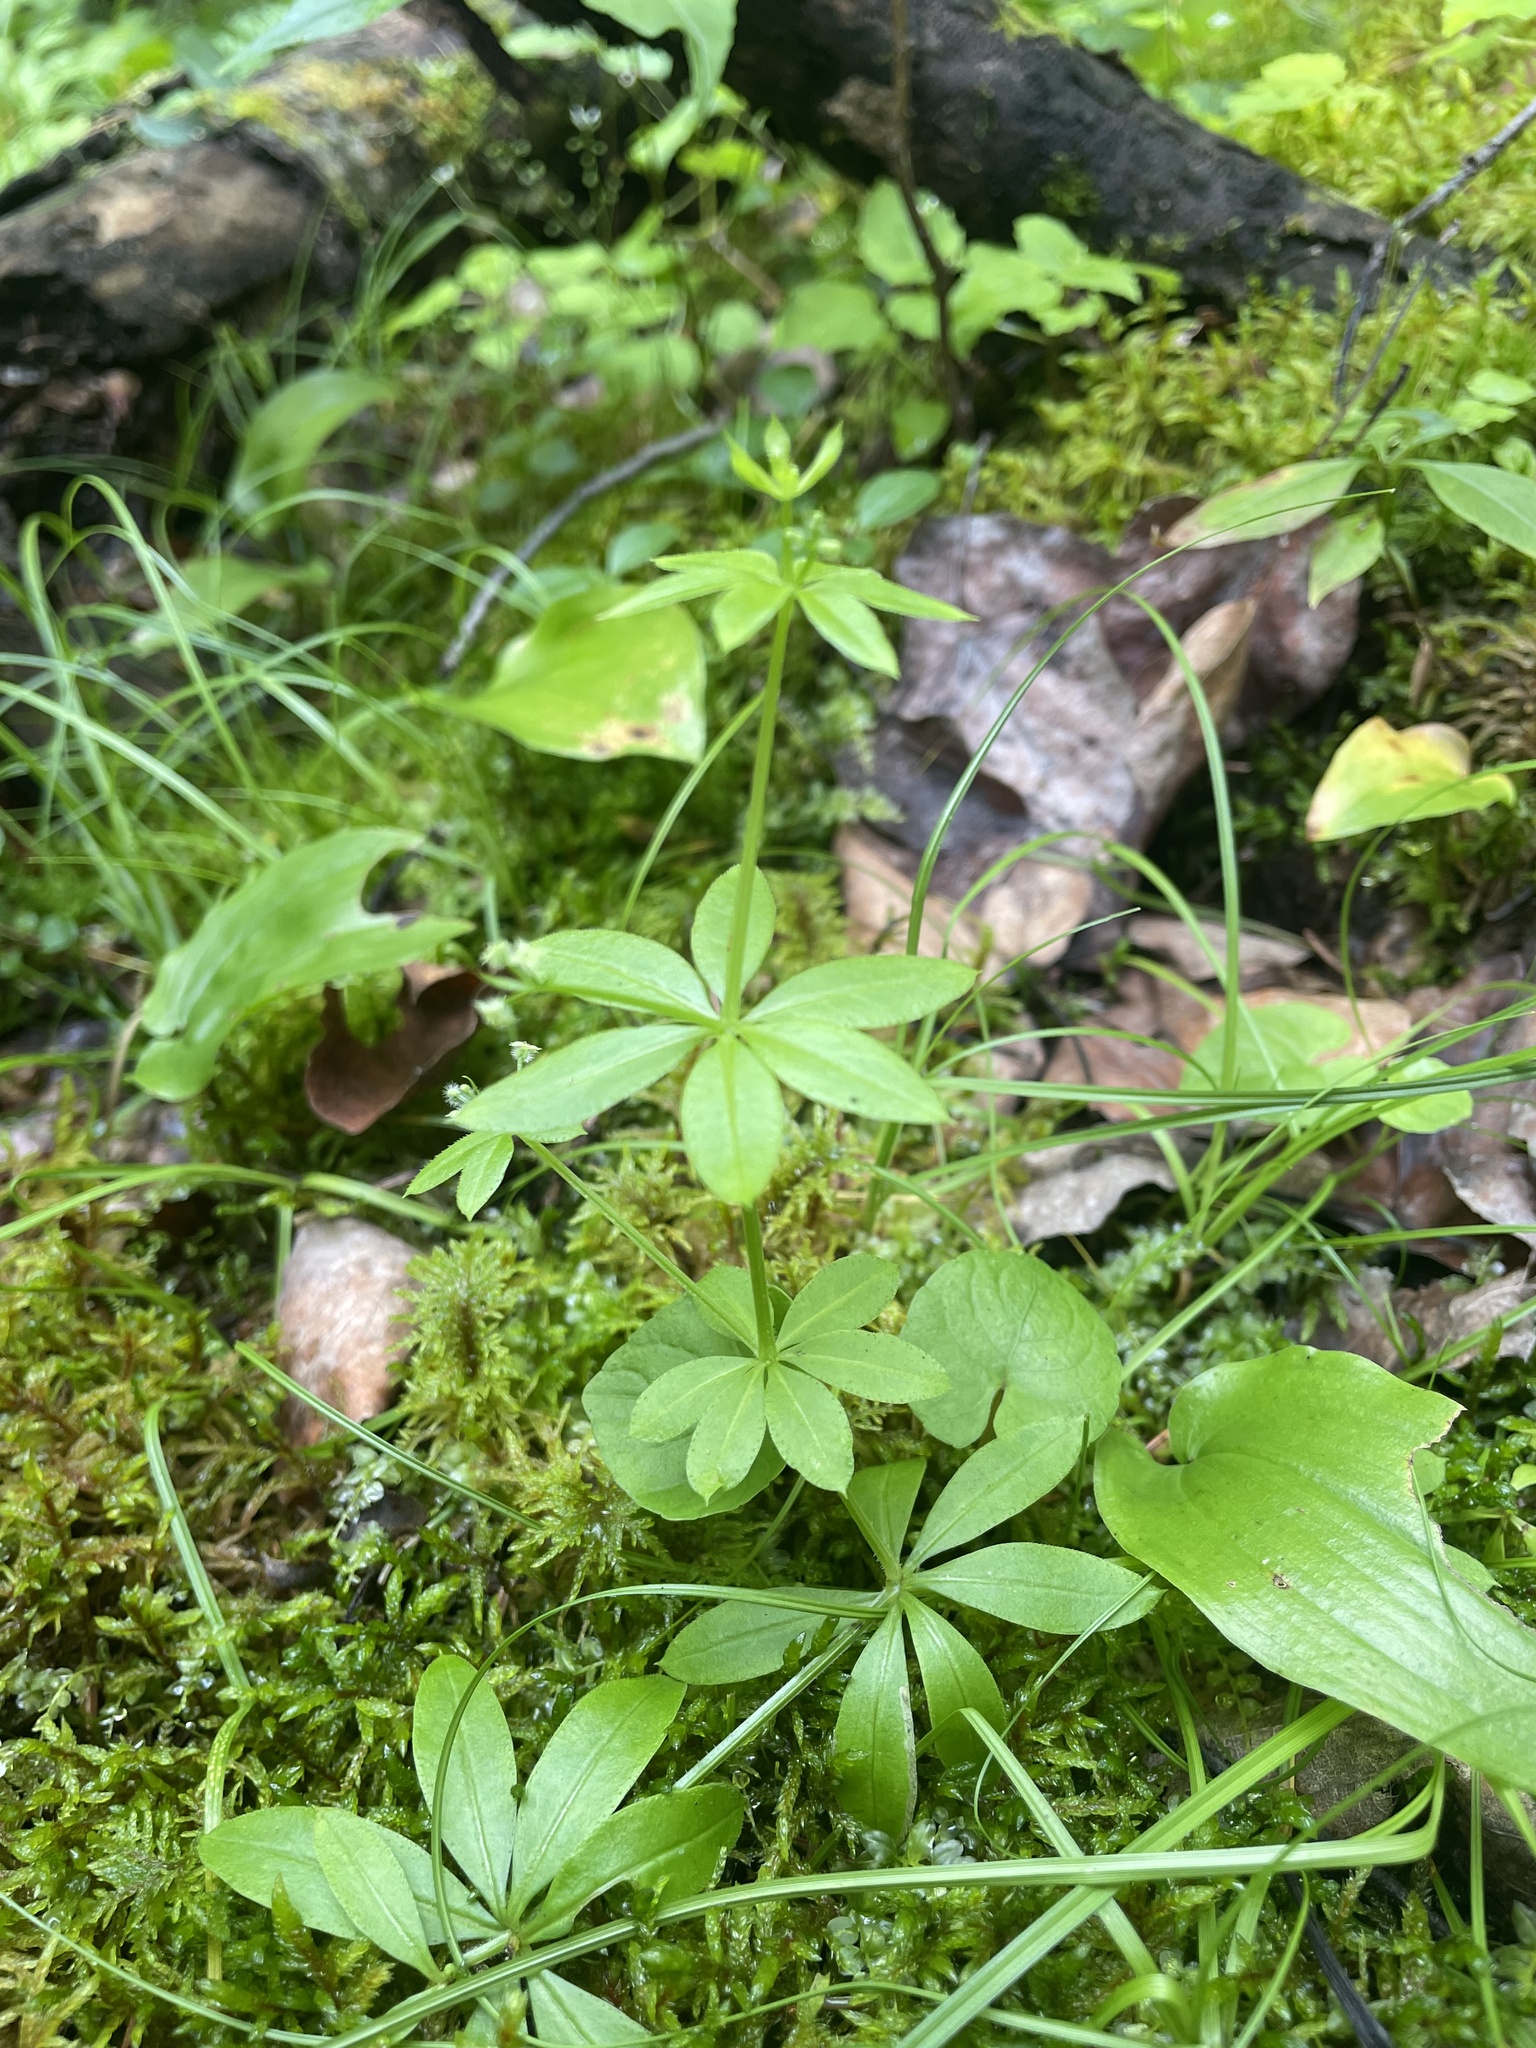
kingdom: Plantae
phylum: Tracheophyta
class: Magnoliopsida
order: Gentianales
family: Rubiaceae
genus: Galium
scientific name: Galium triflorum
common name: Fragrant bedstraw
